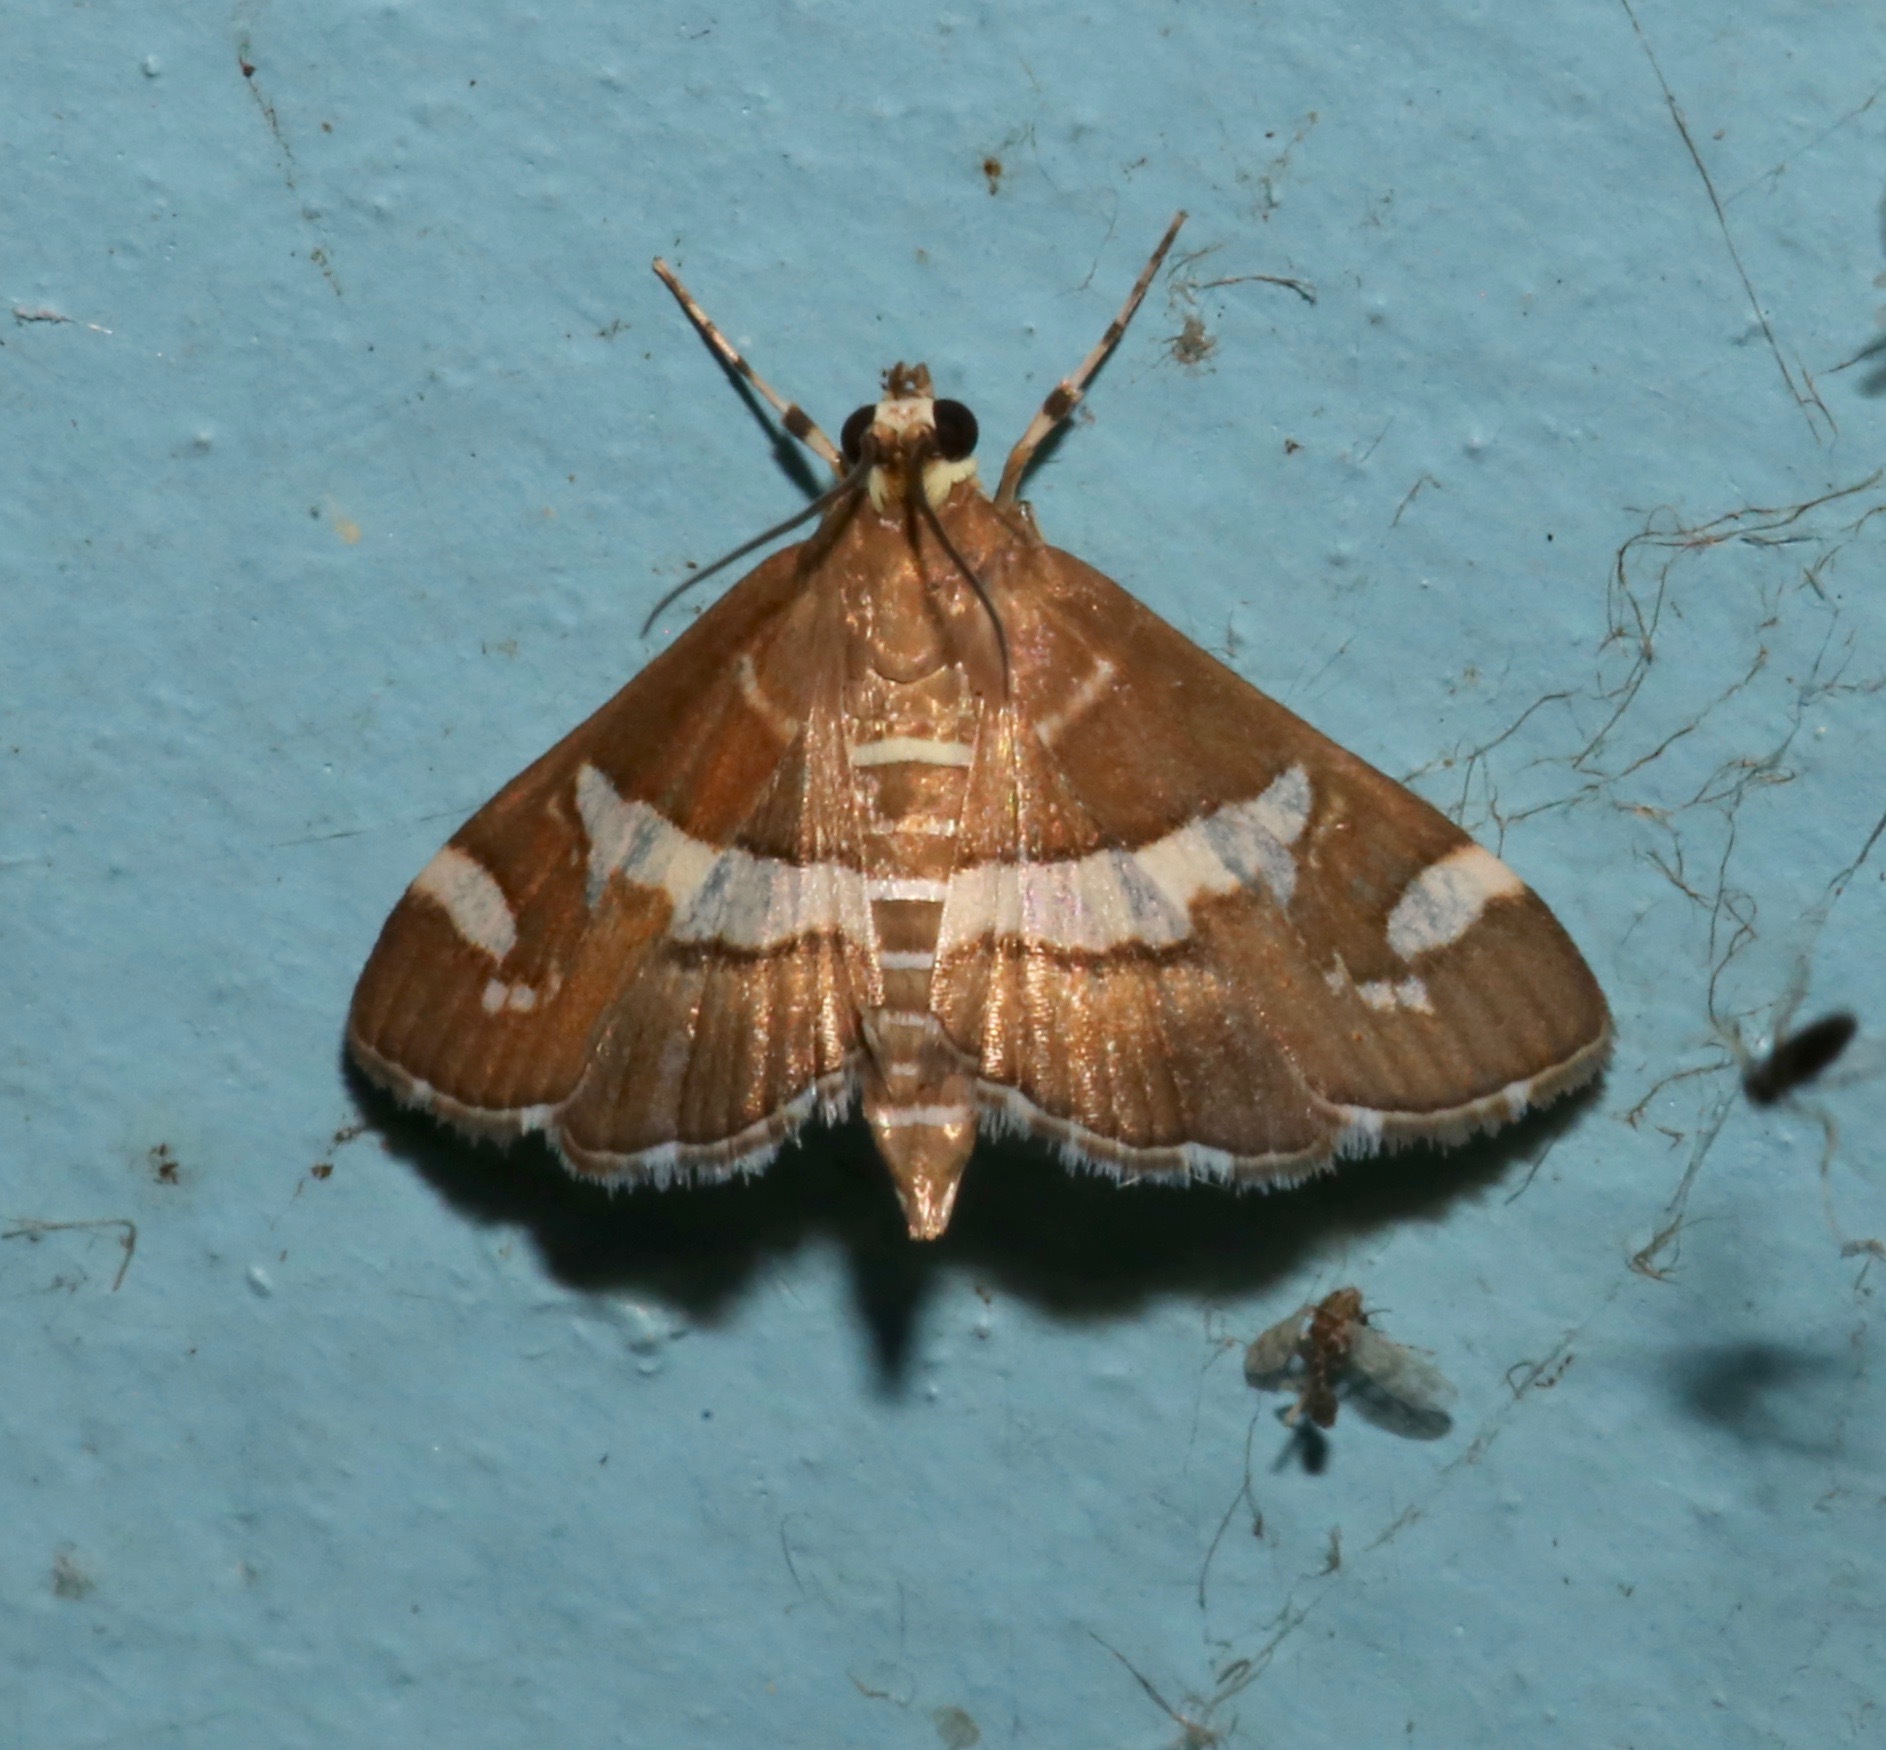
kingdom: Animalia
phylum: Arthropoda
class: Insecta
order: Lepidoptera
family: Crambidae
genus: Spoladea
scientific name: Spoladea recurvalis
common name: Beet webworm moth
